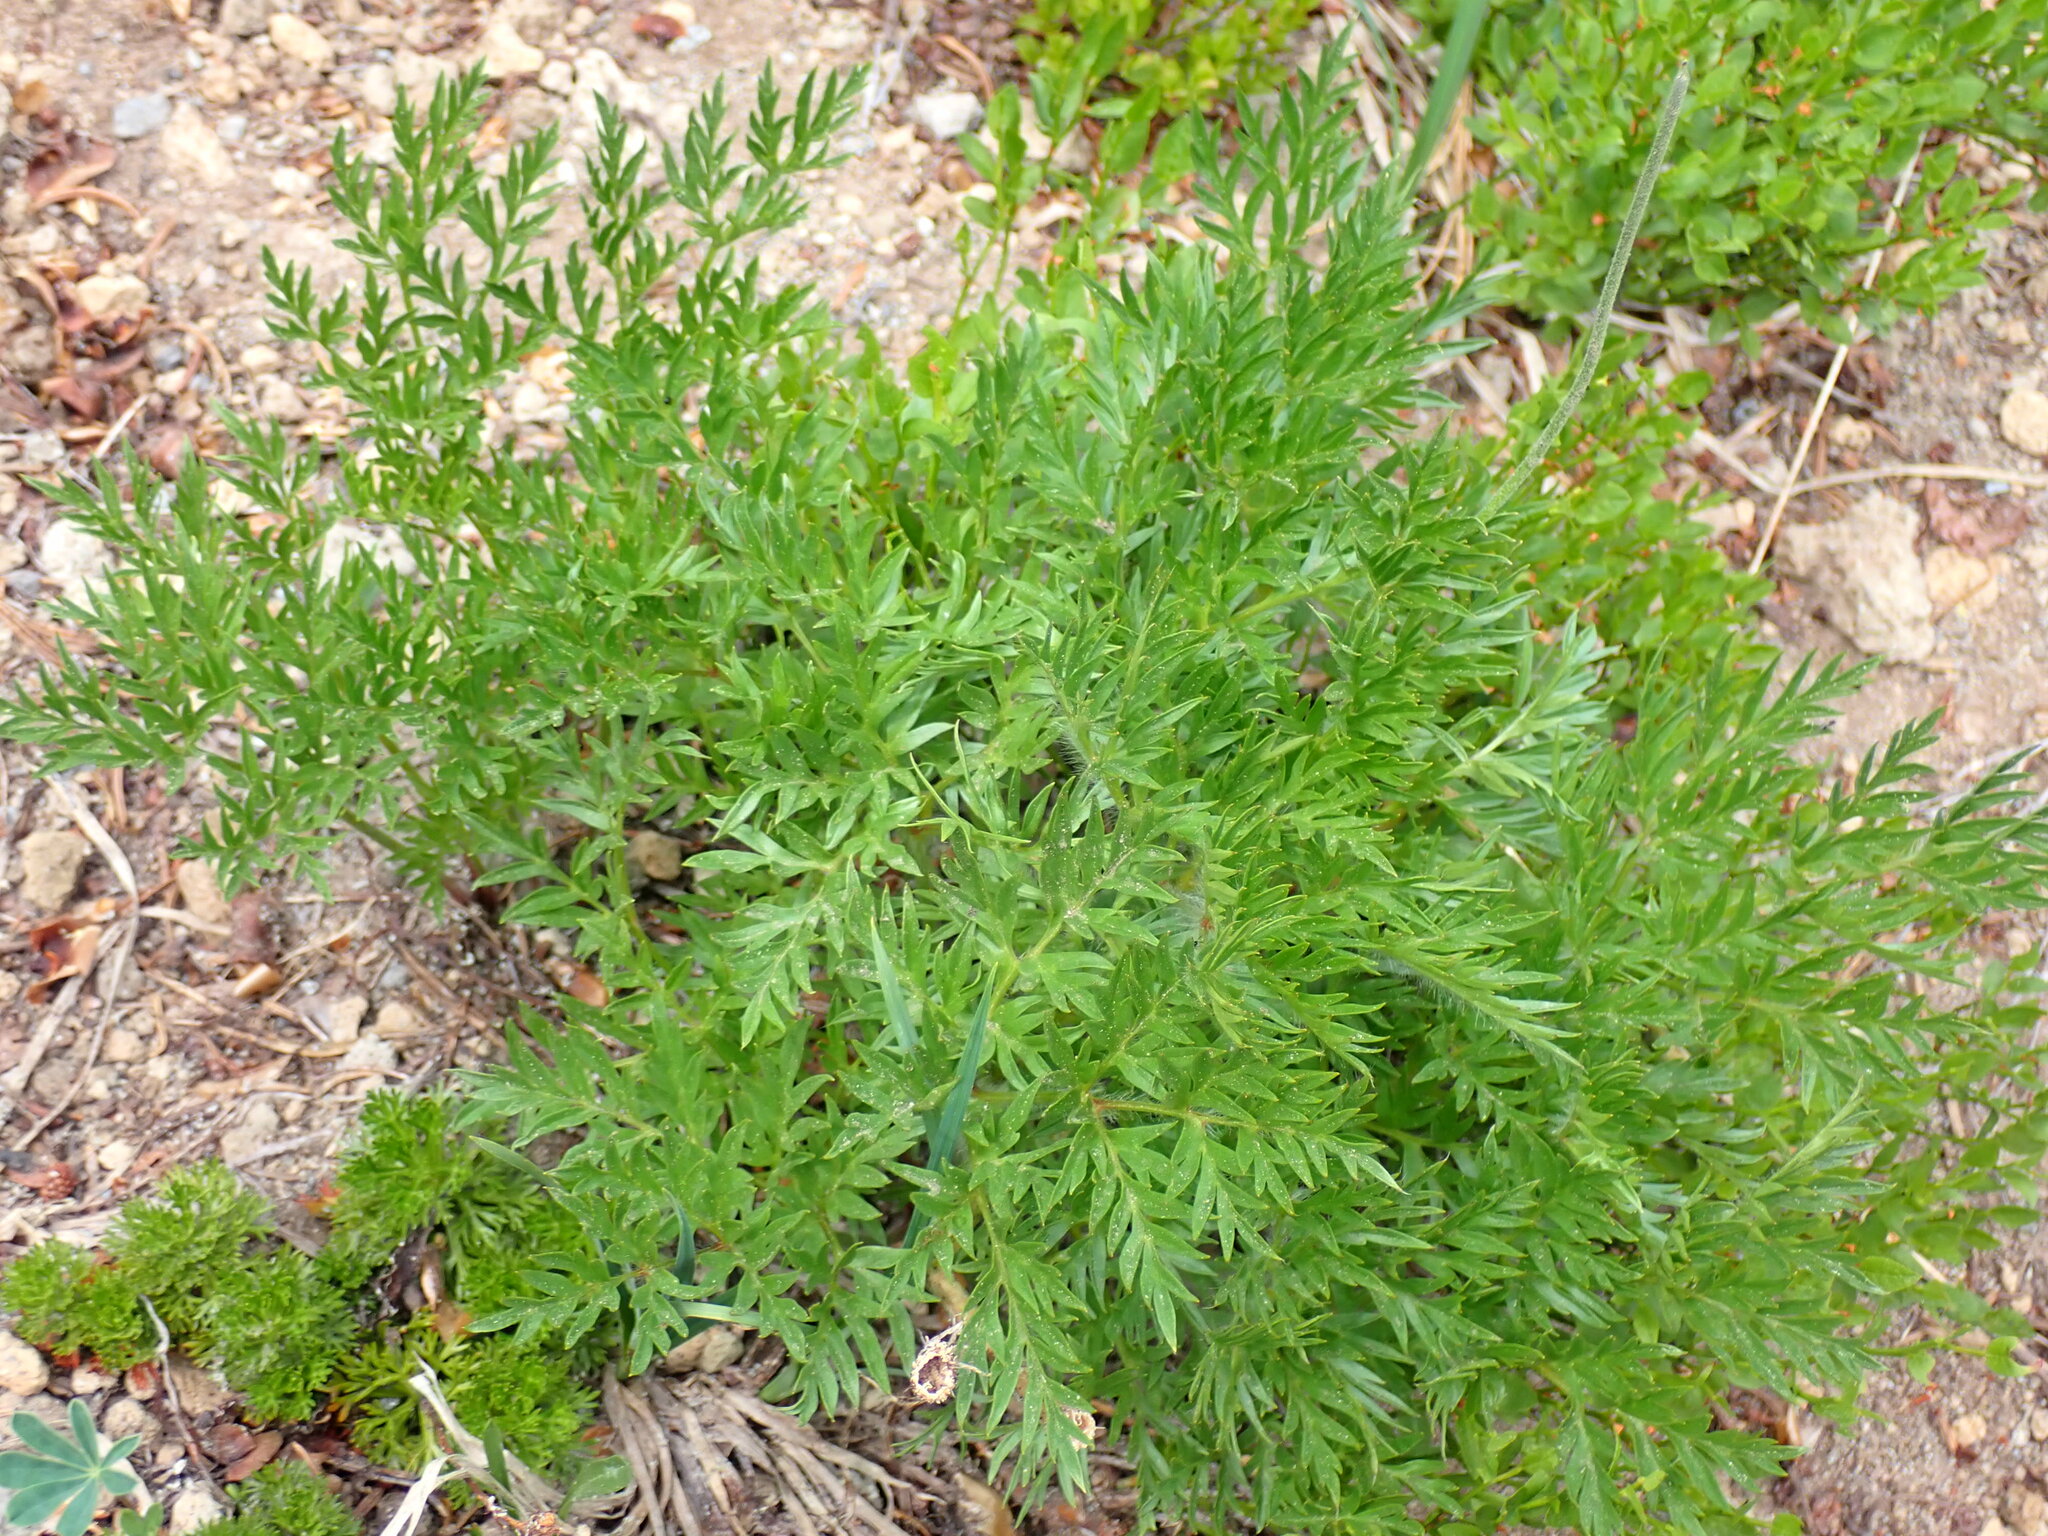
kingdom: Plantae
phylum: Tracheophyta
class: Magnoliopsida
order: Ranunculales
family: Ranunculaceae
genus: Pulsatilla
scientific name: Pulsatilla occidentalis
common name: Mountain pasqueflower
